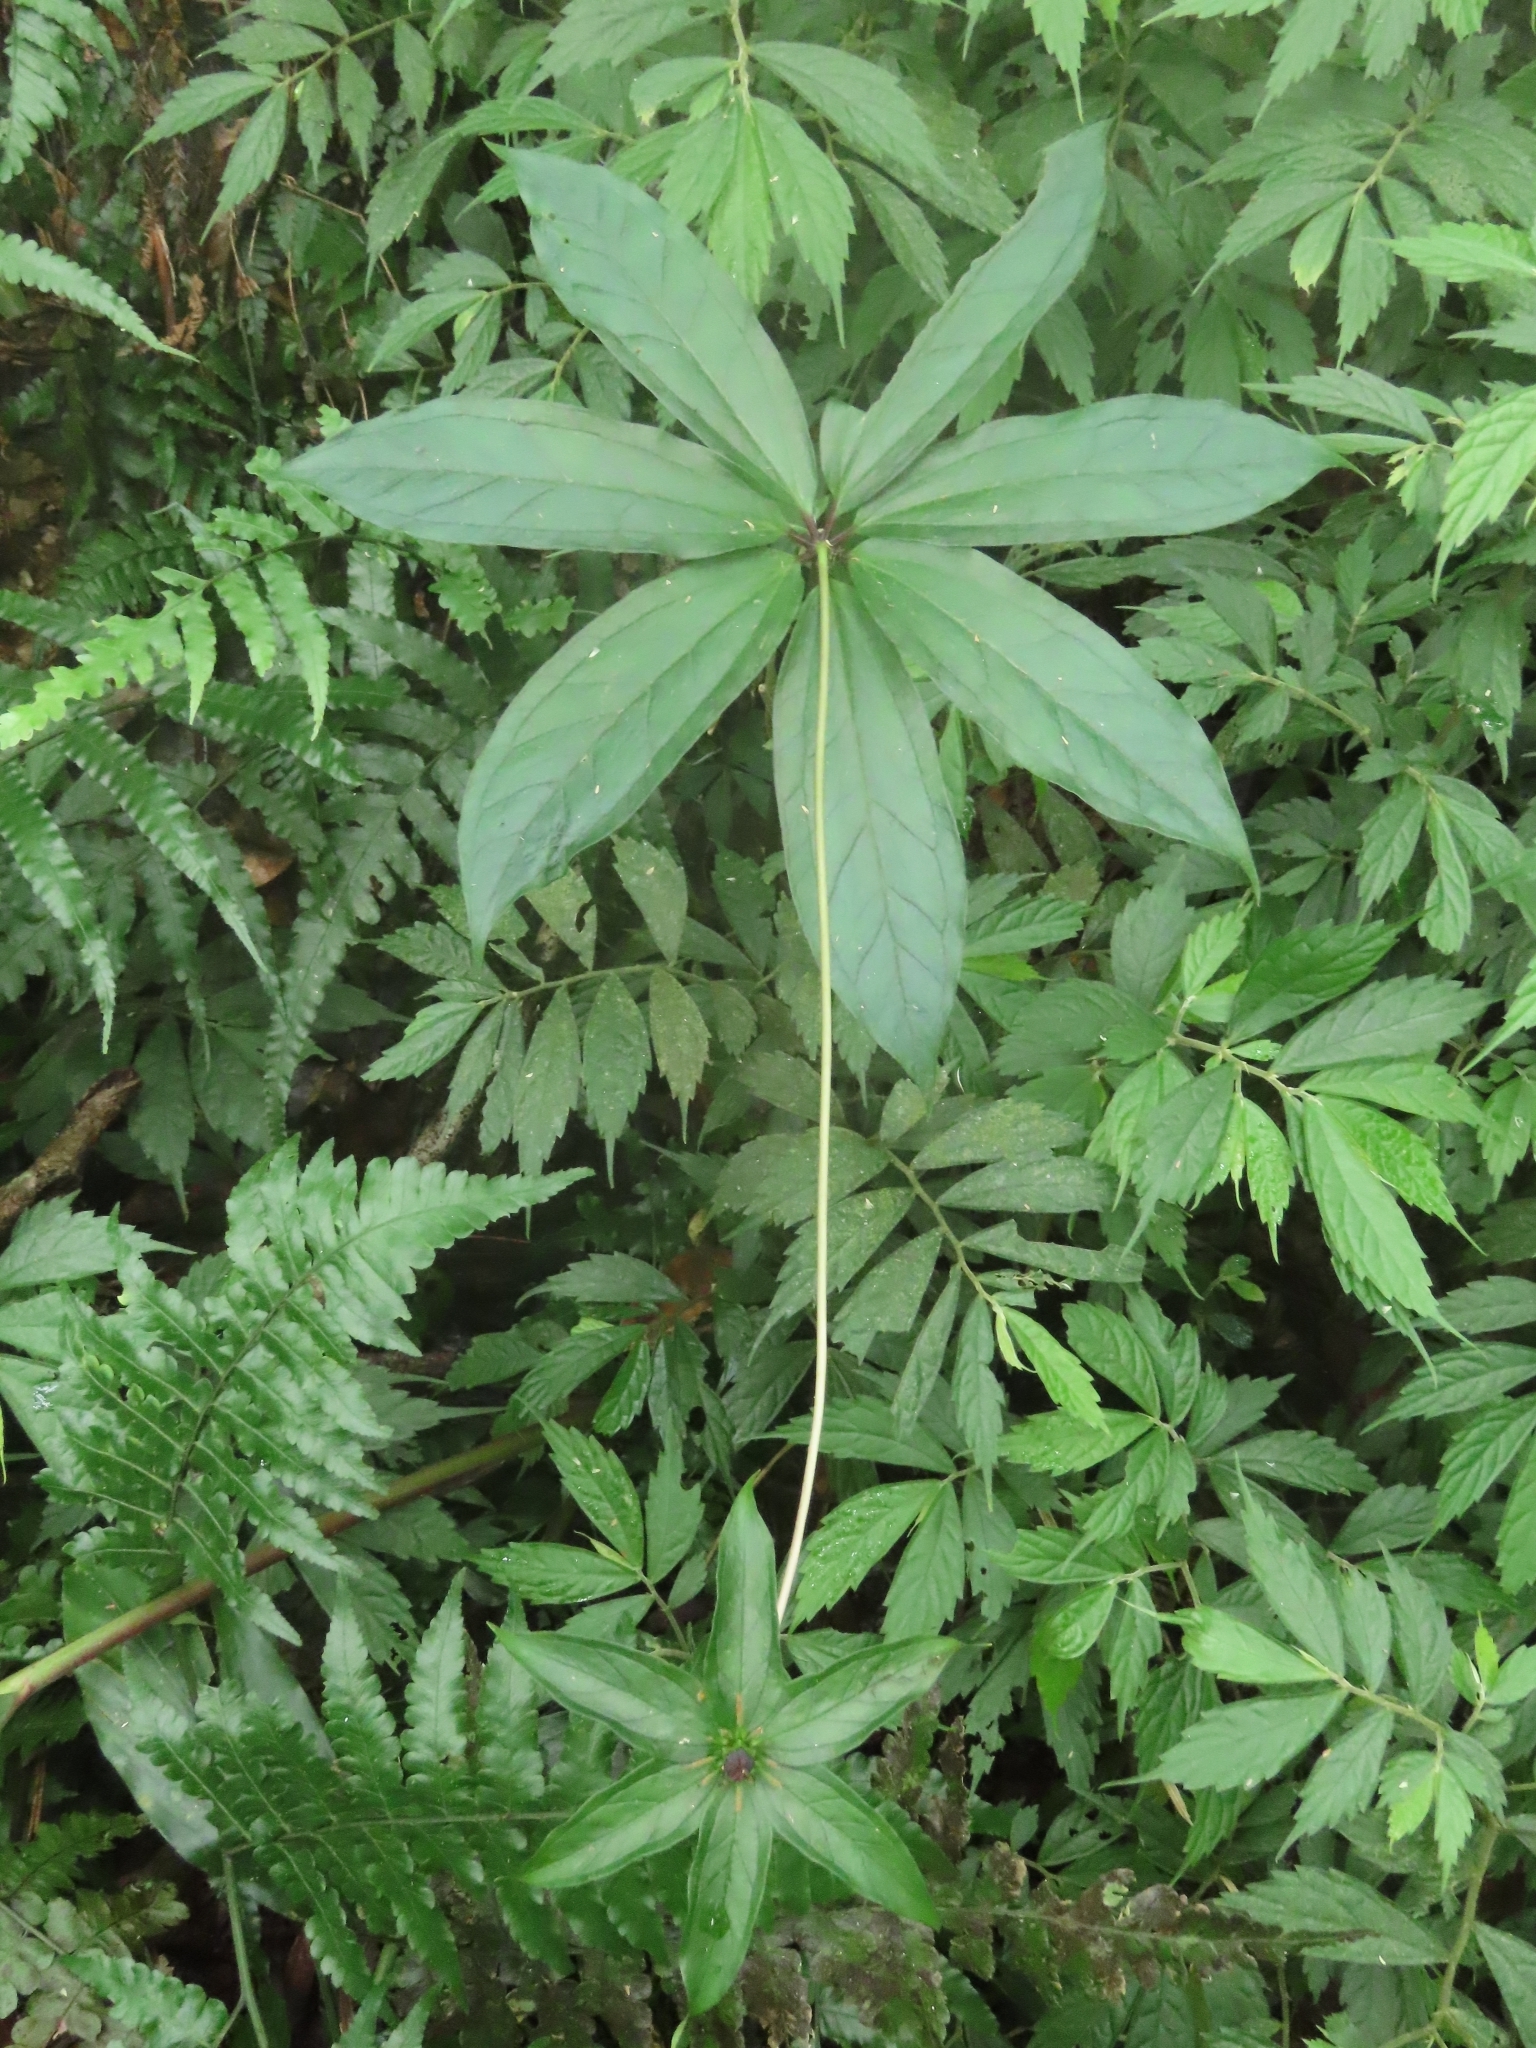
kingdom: Plantae
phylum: Tracheophyta
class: Liliopsida
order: Liliales
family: Melanthiaceae
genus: Paris
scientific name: Paris polyphylla
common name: Love apple
